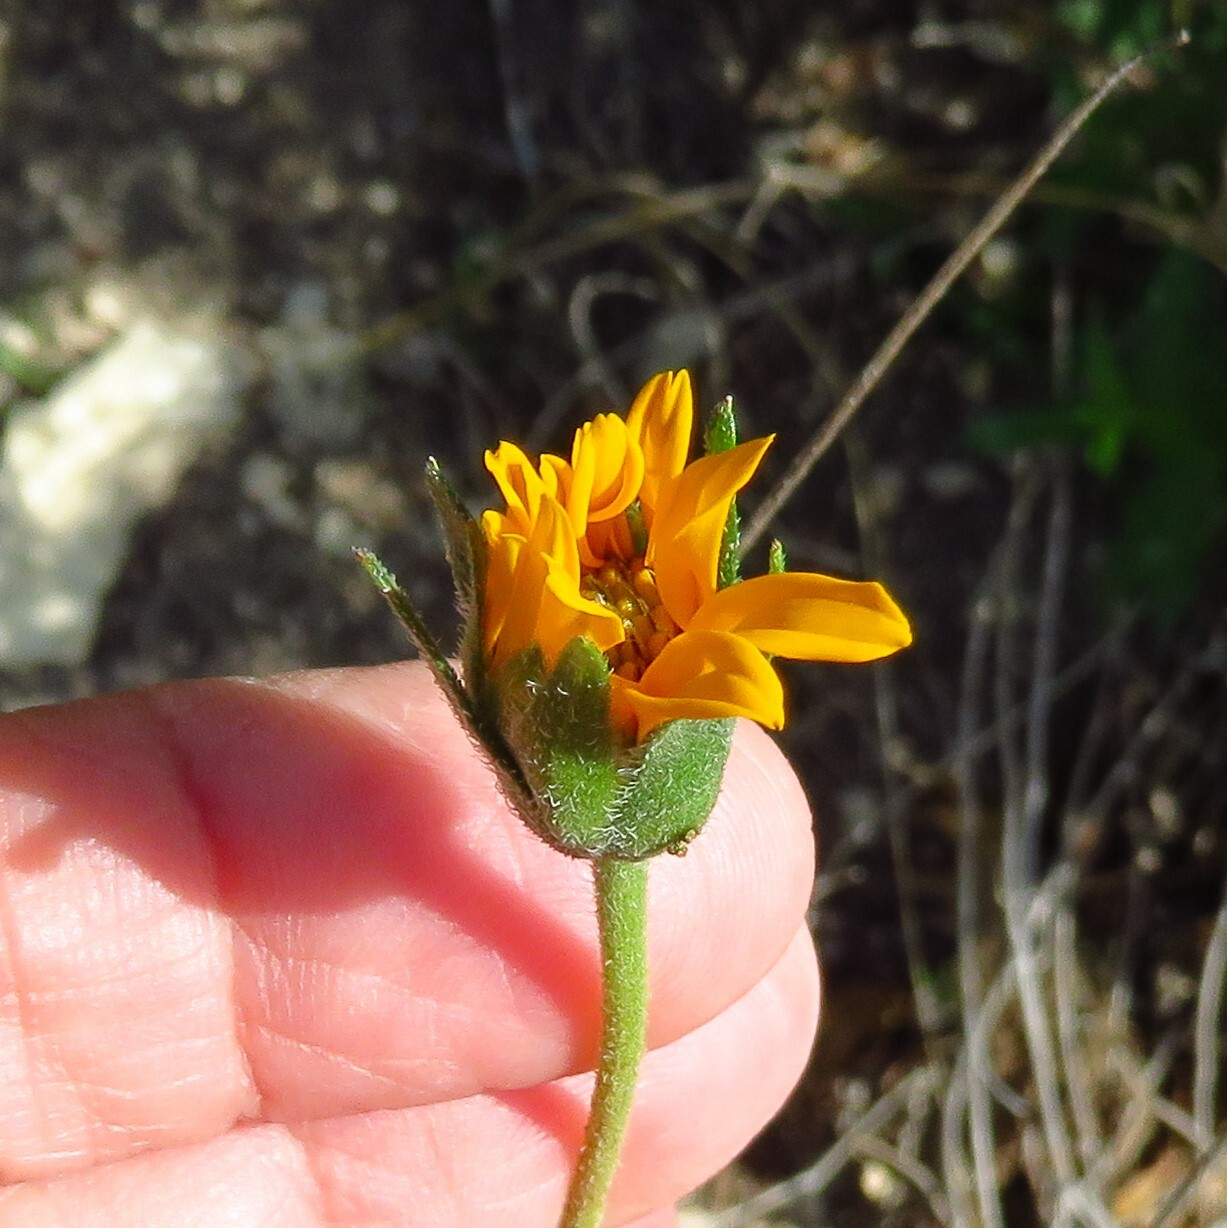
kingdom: Plantae
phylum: Tracheophyta
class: Magnoliopsida
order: Asterales
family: Asteraceae
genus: Wedelia
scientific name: Wedelia acapulcensis
